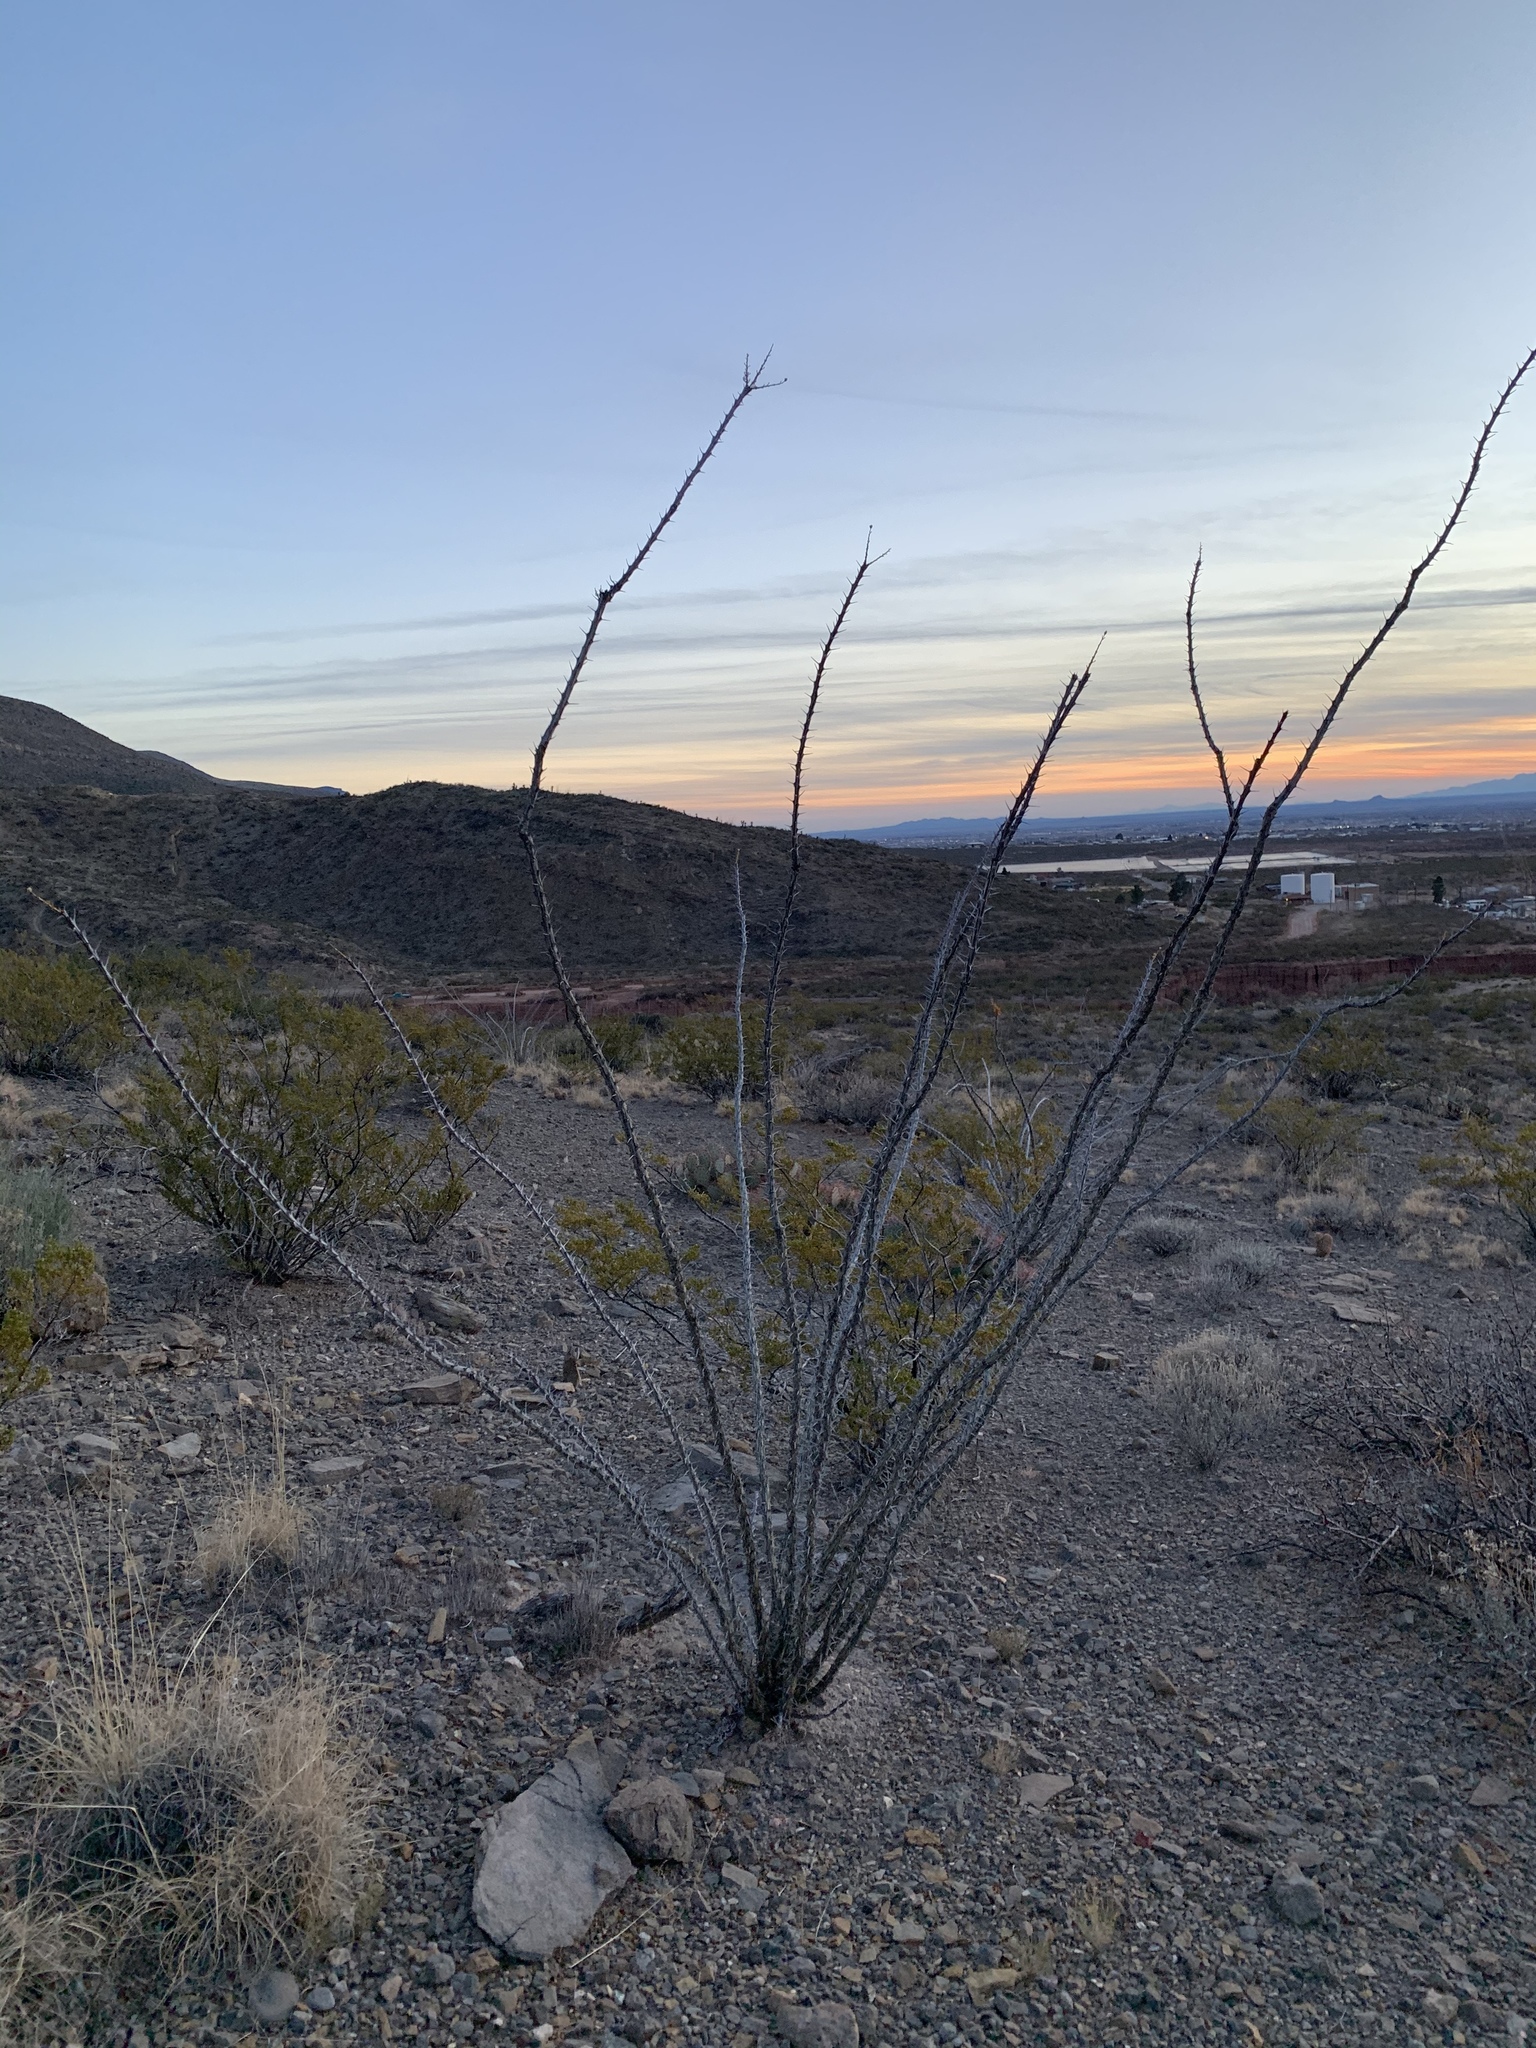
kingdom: Plantae
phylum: Tracheophyta
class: Magnoliopsida
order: Ericales
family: Fouquieriaceae
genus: Fouquieria
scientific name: Fouquieria splendens
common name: Vine-cactus
